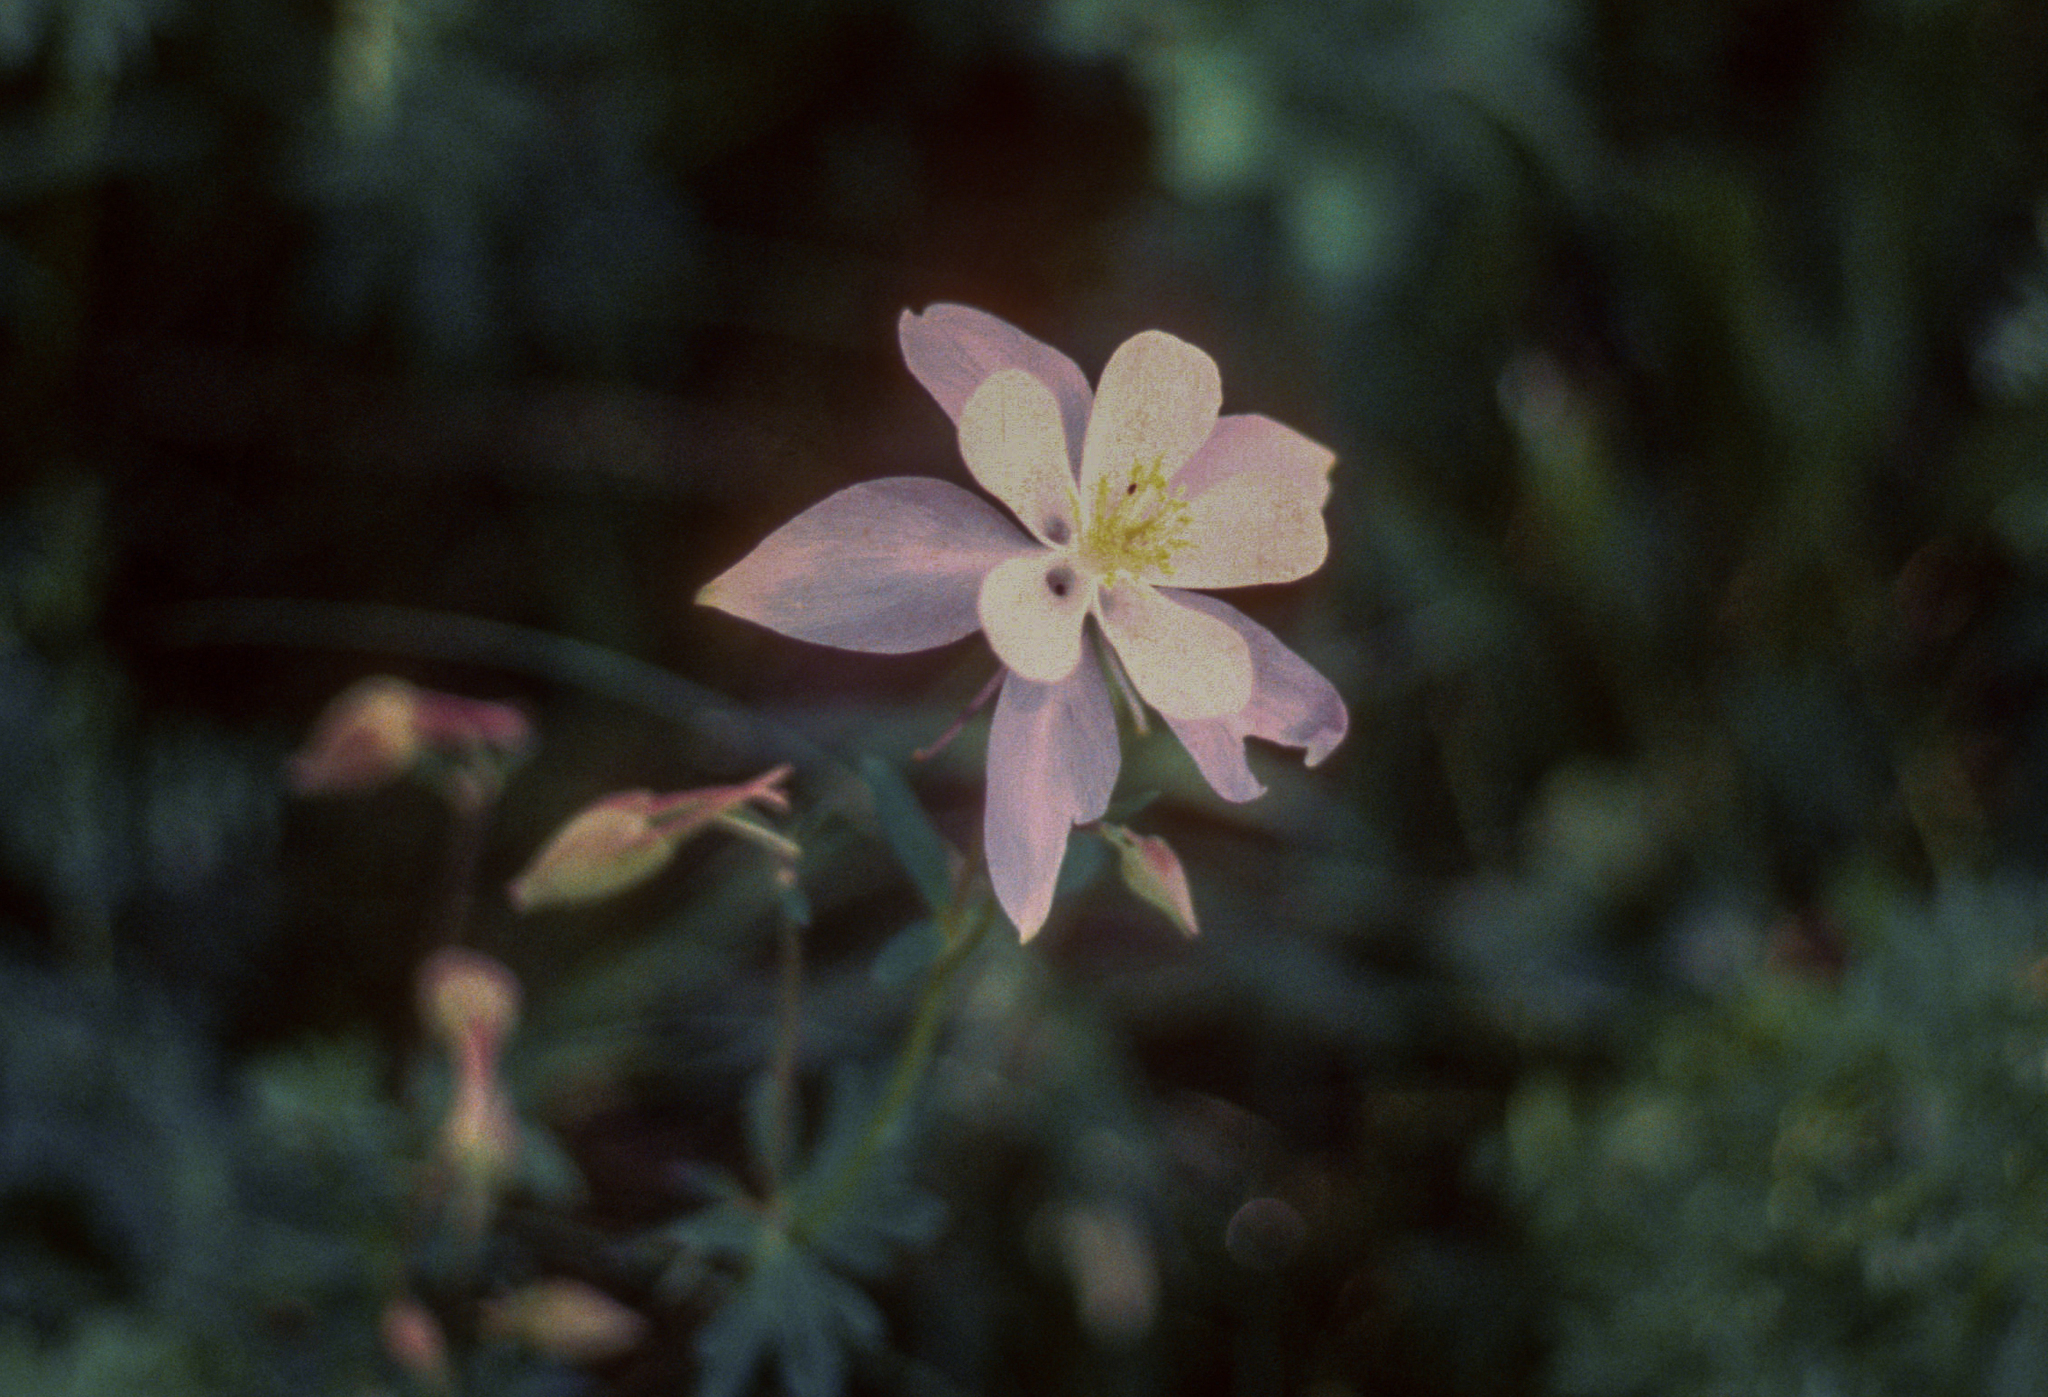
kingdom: Plantae
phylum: Tracheophyta
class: Magnoliopsida
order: Ranunculales
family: Ranunculaceae
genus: Aquilegia
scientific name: Aquilegia coerulea
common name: Rocky mountain columbine
